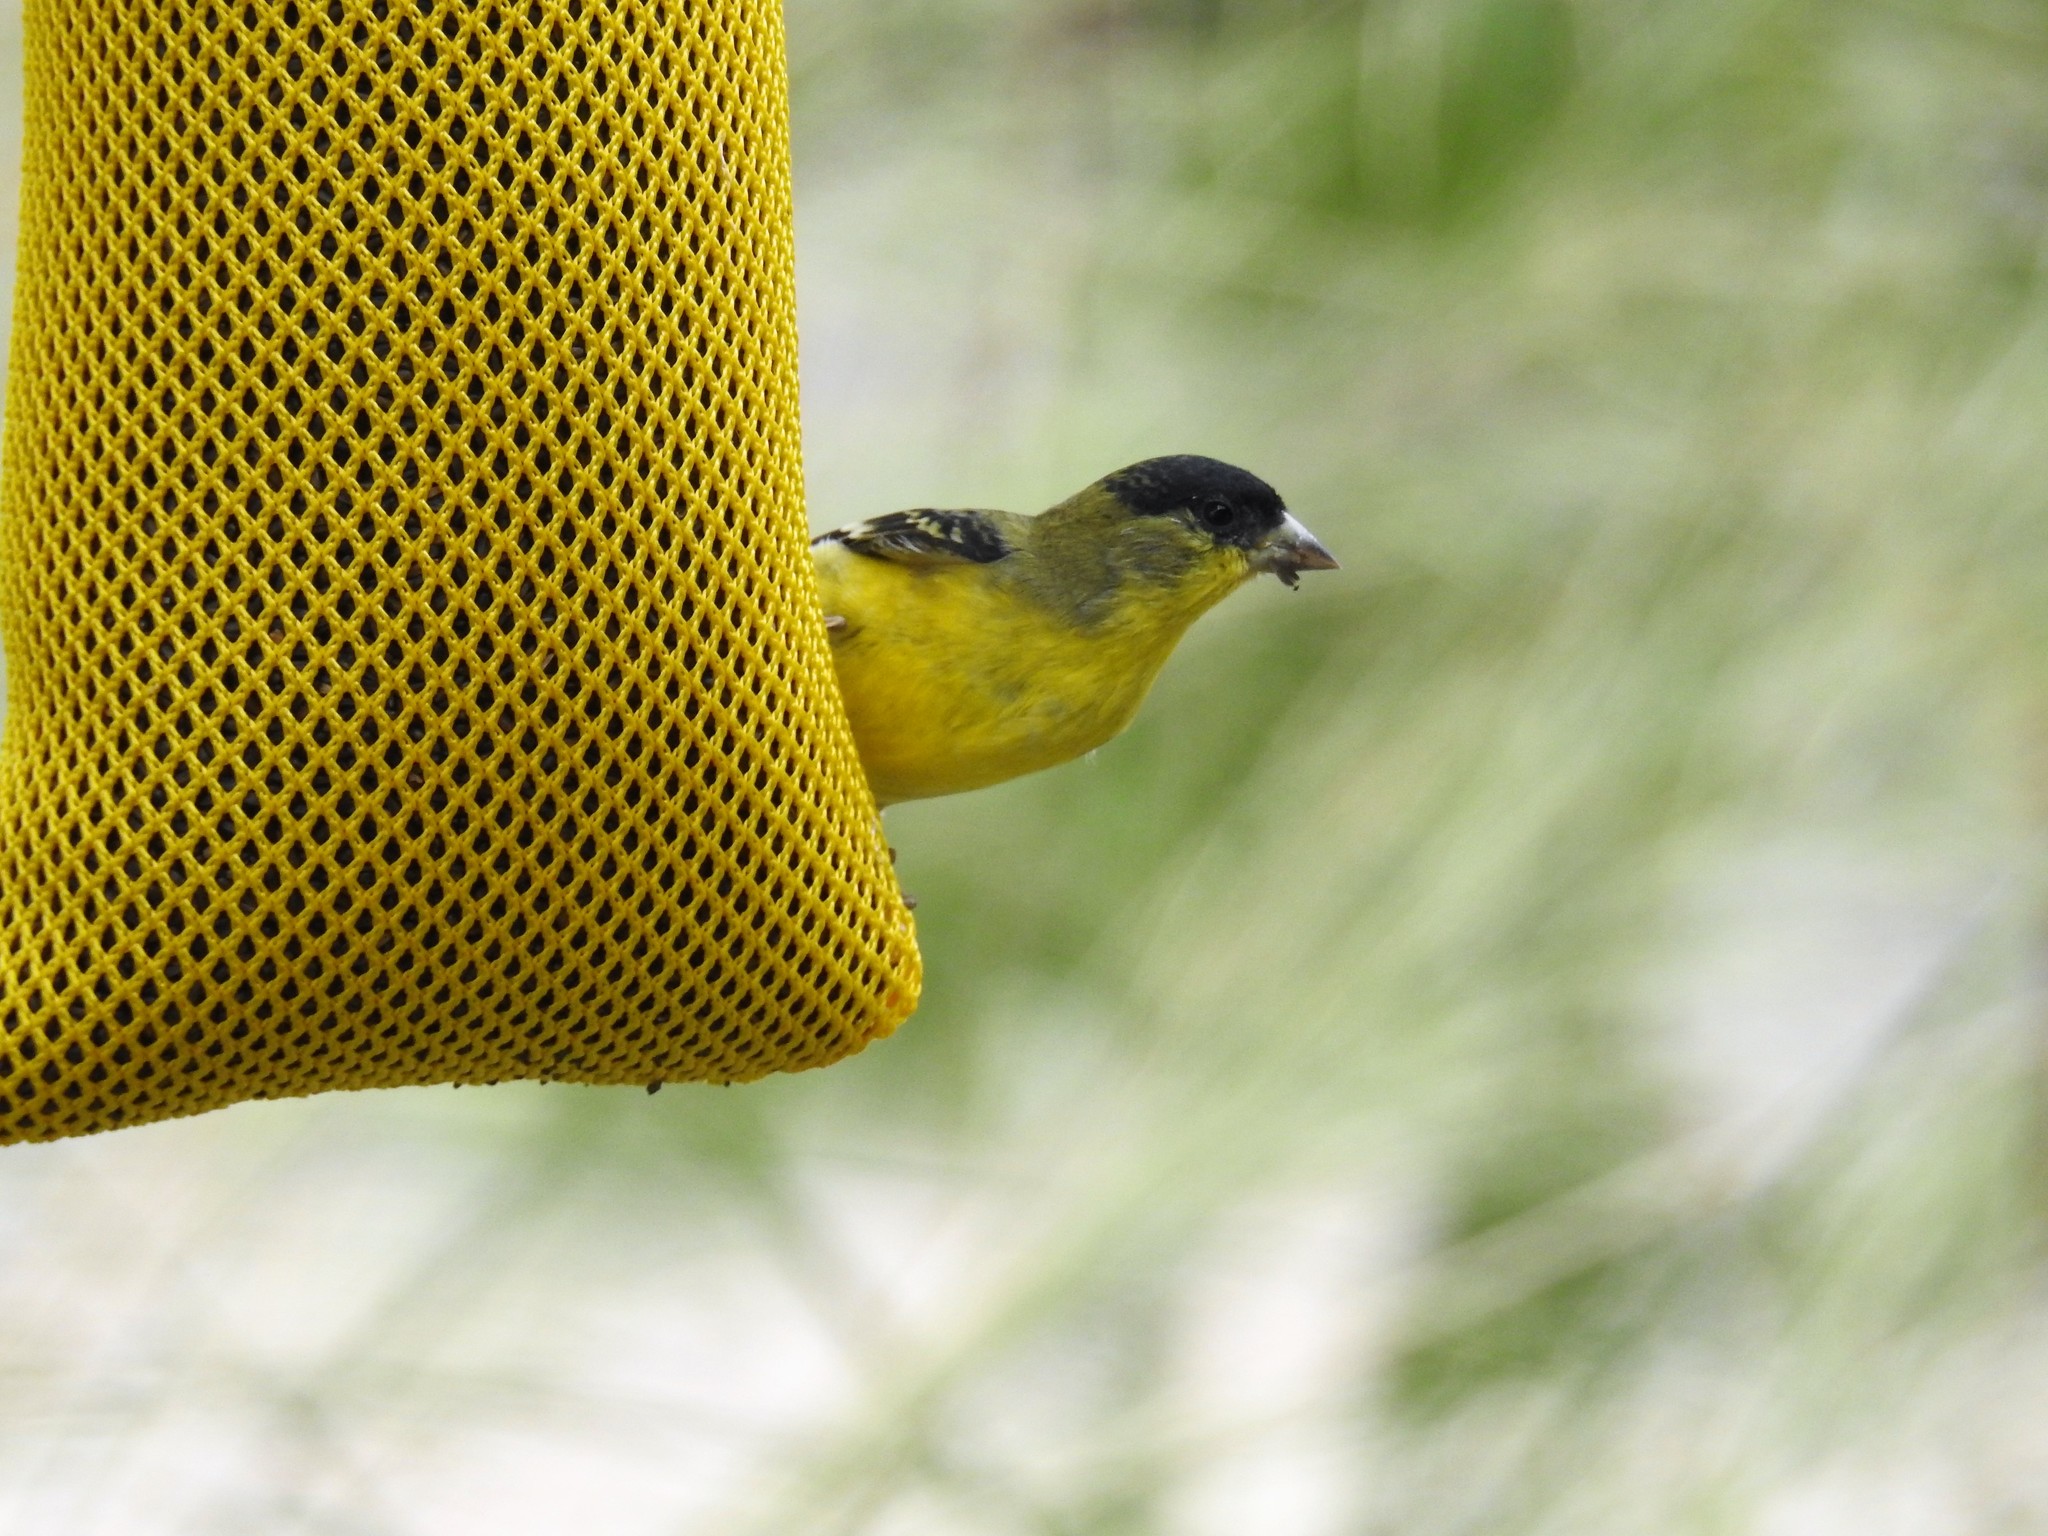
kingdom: Animalia
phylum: Chordata
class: Aves
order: Passeriformes
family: Fringillidae
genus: Spinus
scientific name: Spinus psaltria
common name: Lesser goldfinch
